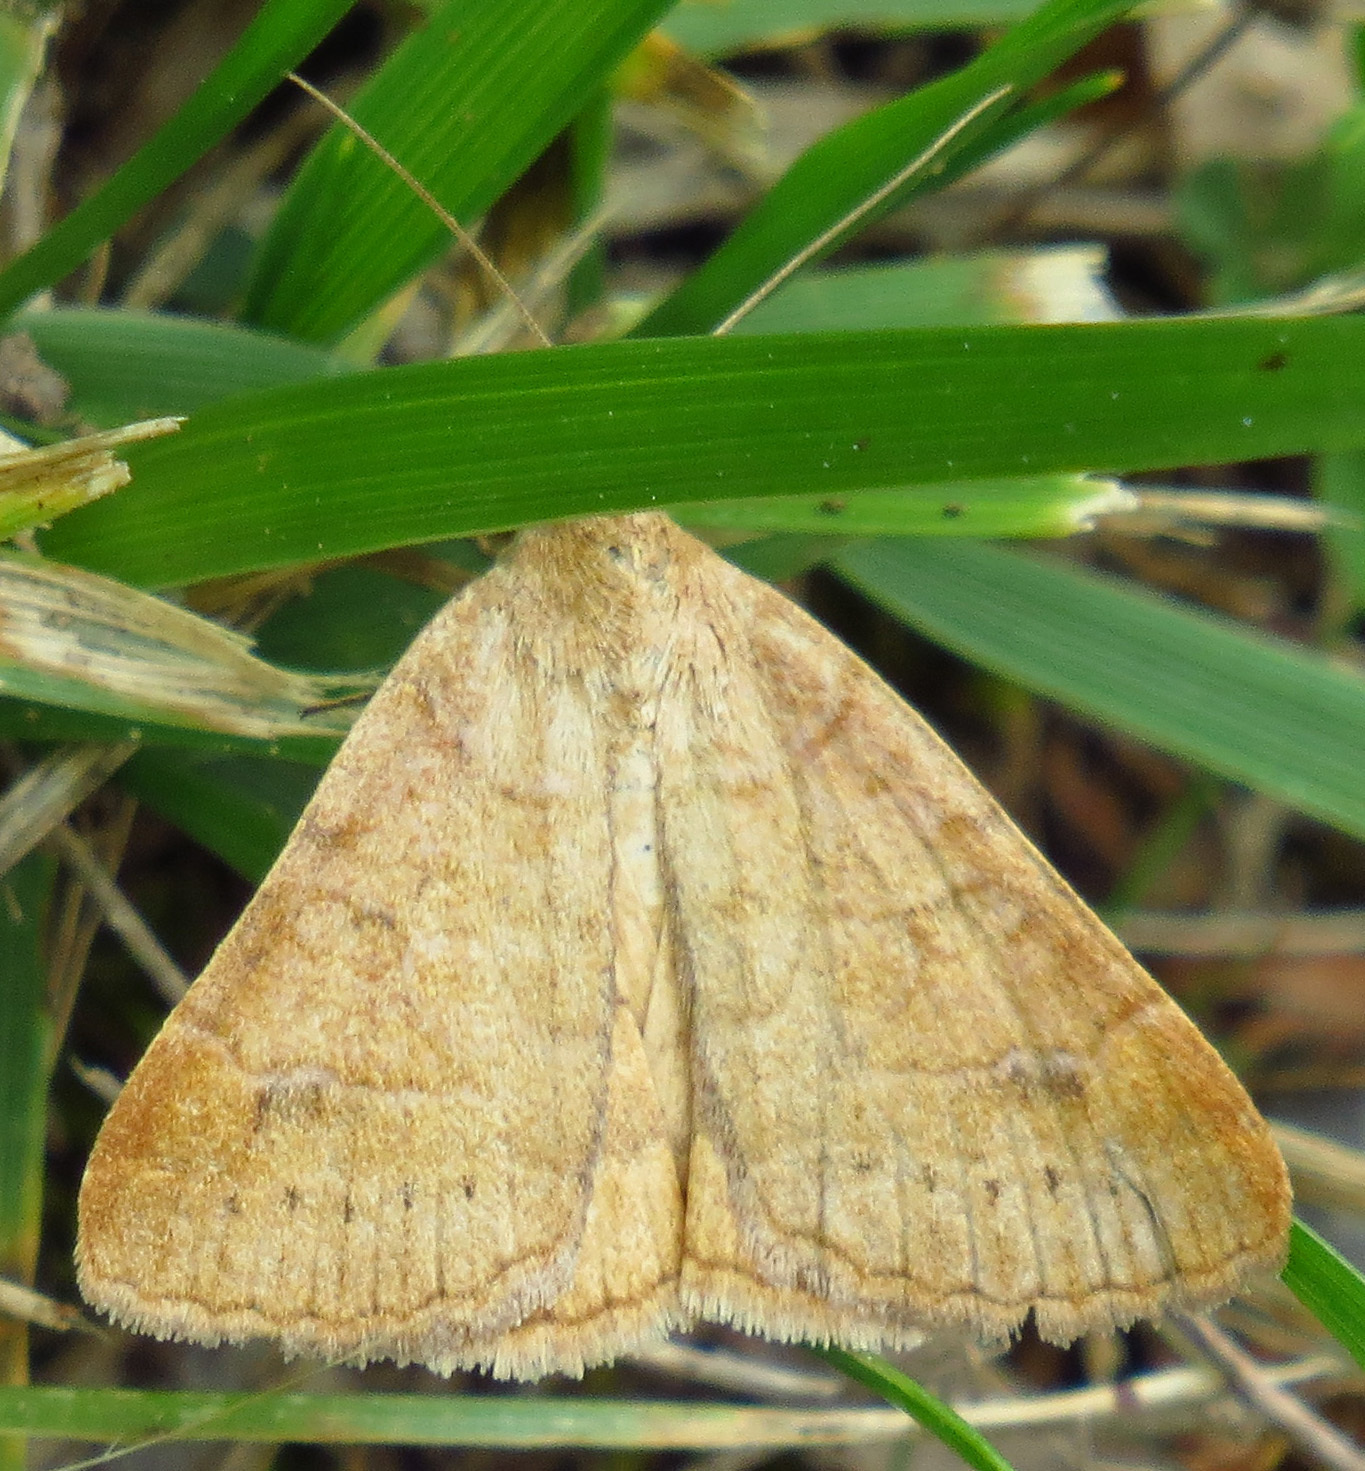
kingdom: Animalia
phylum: Arthropoda
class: Insecta
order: Lepidoptera
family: Erebidae
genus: Caenurgia
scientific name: Caenurgia chloropha
